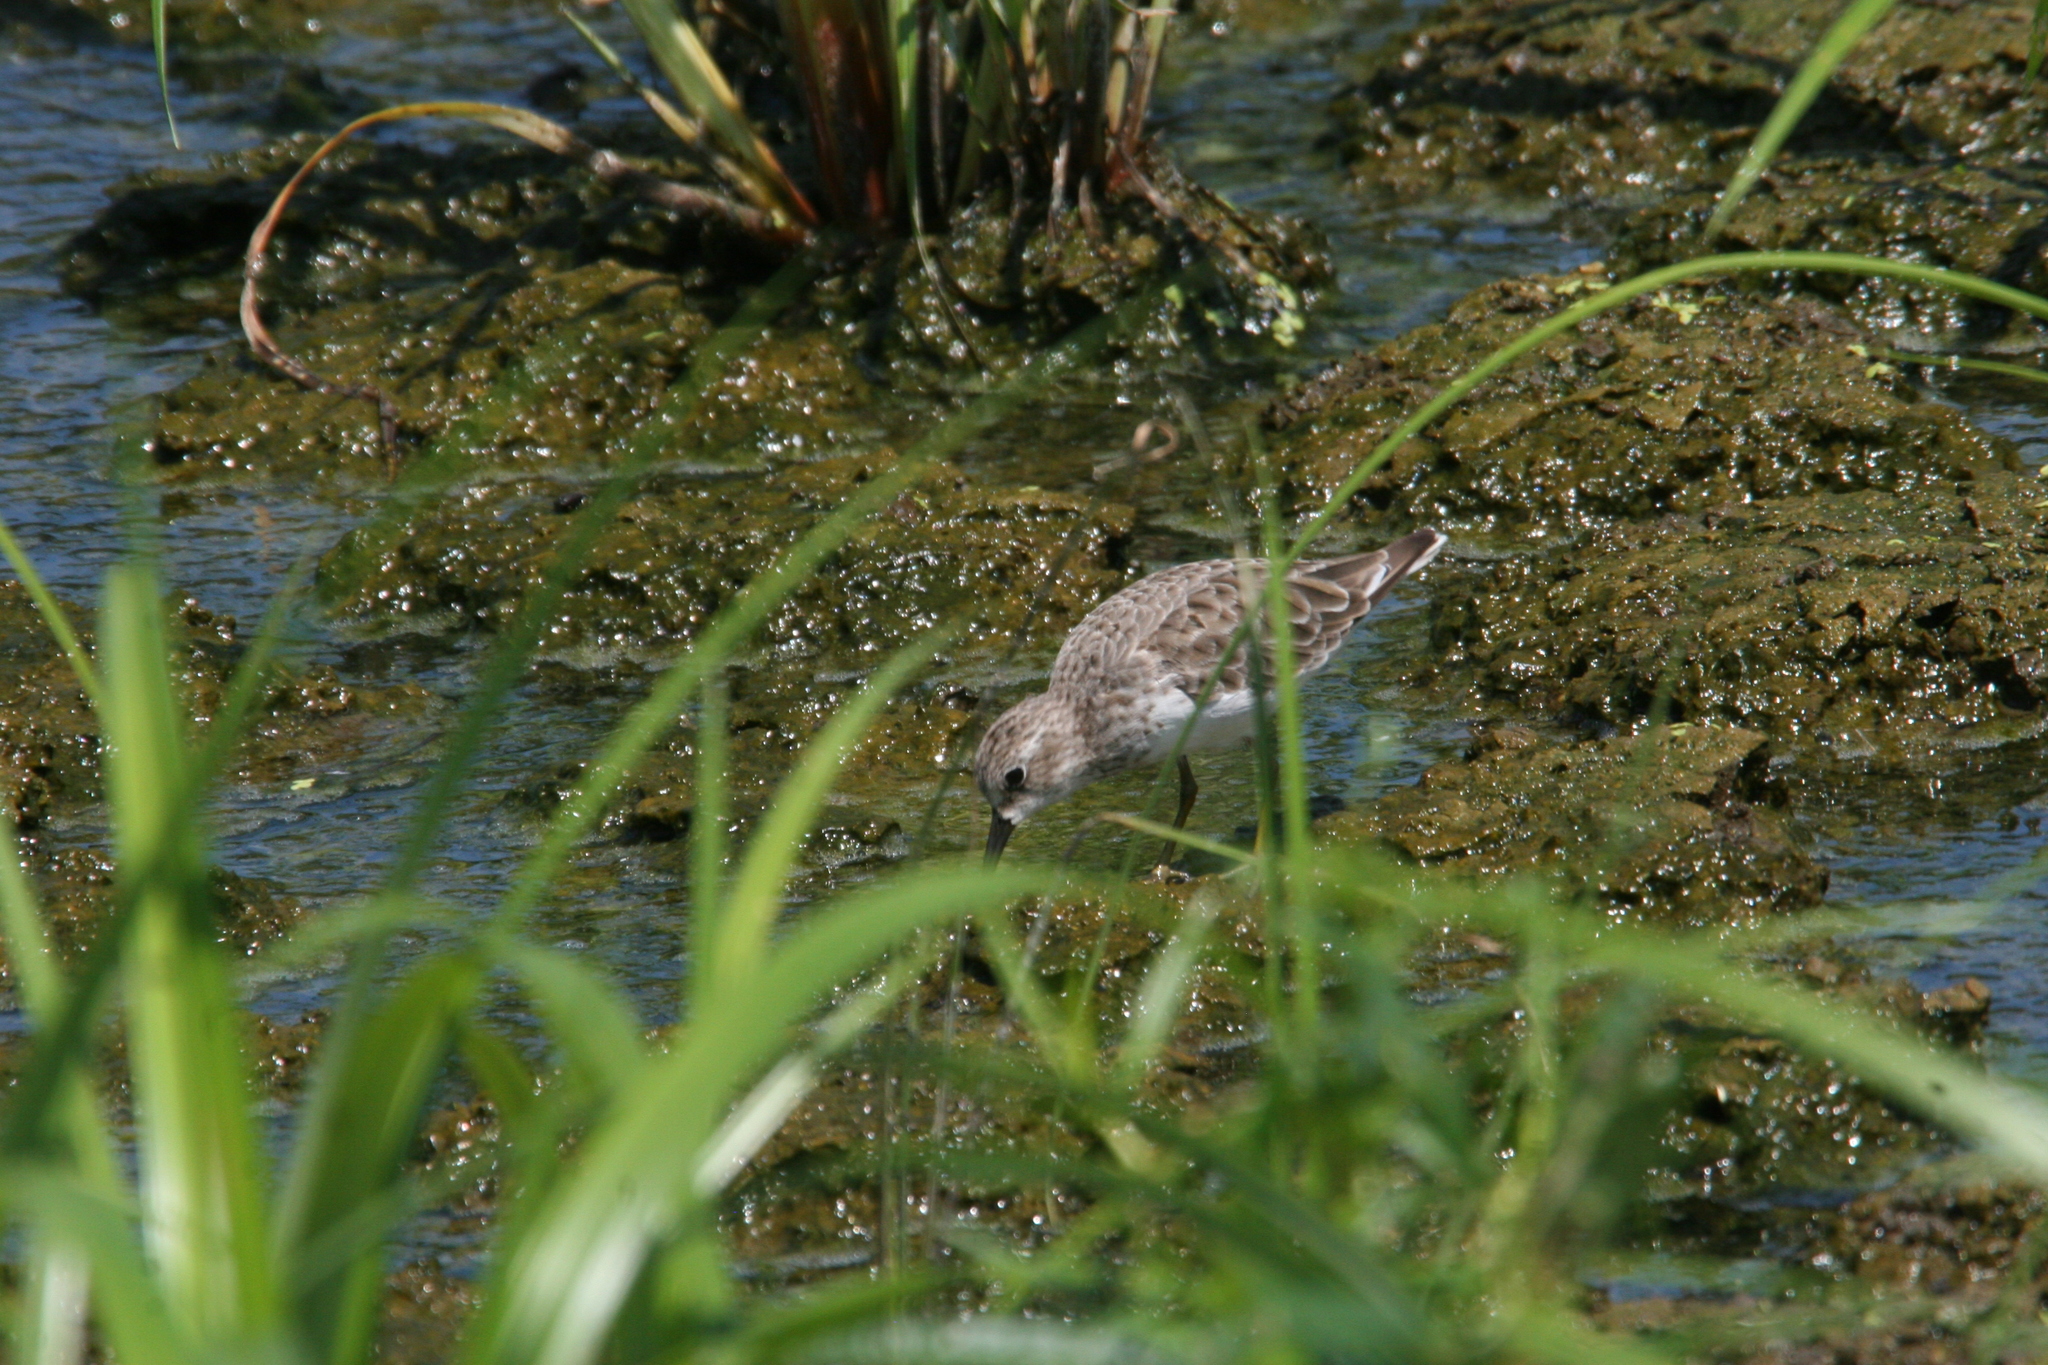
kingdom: Animalia
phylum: Chordata
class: Aves
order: Charadriiformes
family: Scolopacidae
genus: Calidris
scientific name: Calidris minutilla
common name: Least sandpiper
